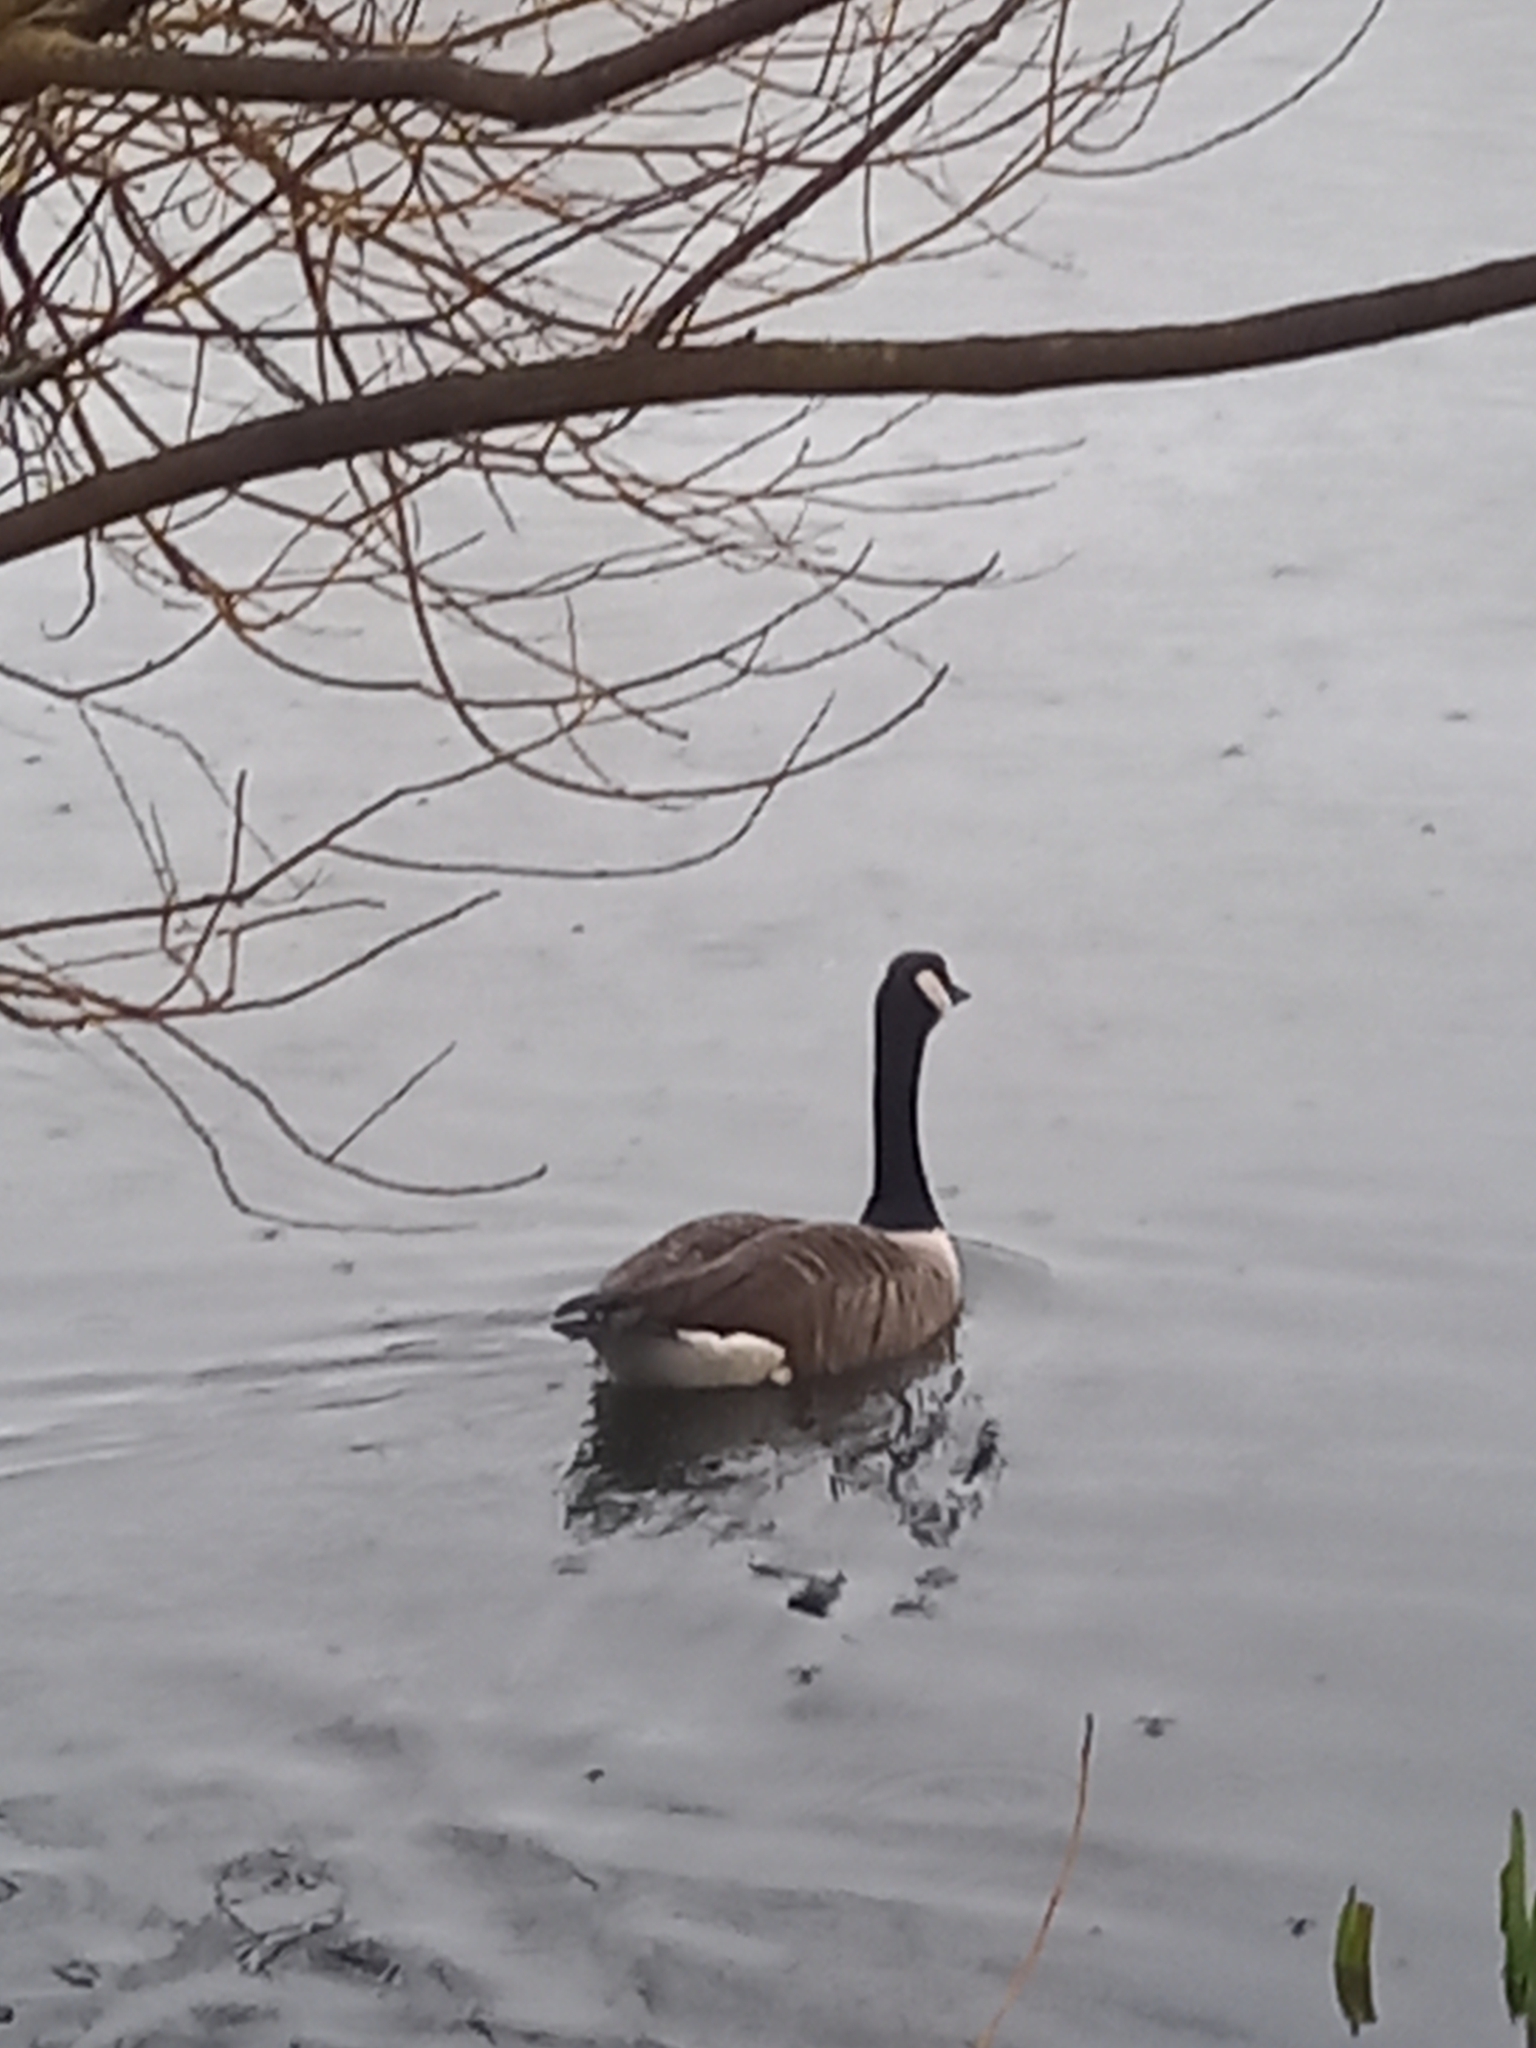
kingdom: Animalia
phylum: Chordata
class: Aves
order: Anseriformes
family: Anatidae
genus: Branta
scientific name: Branta canadensis
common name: Canada goose
